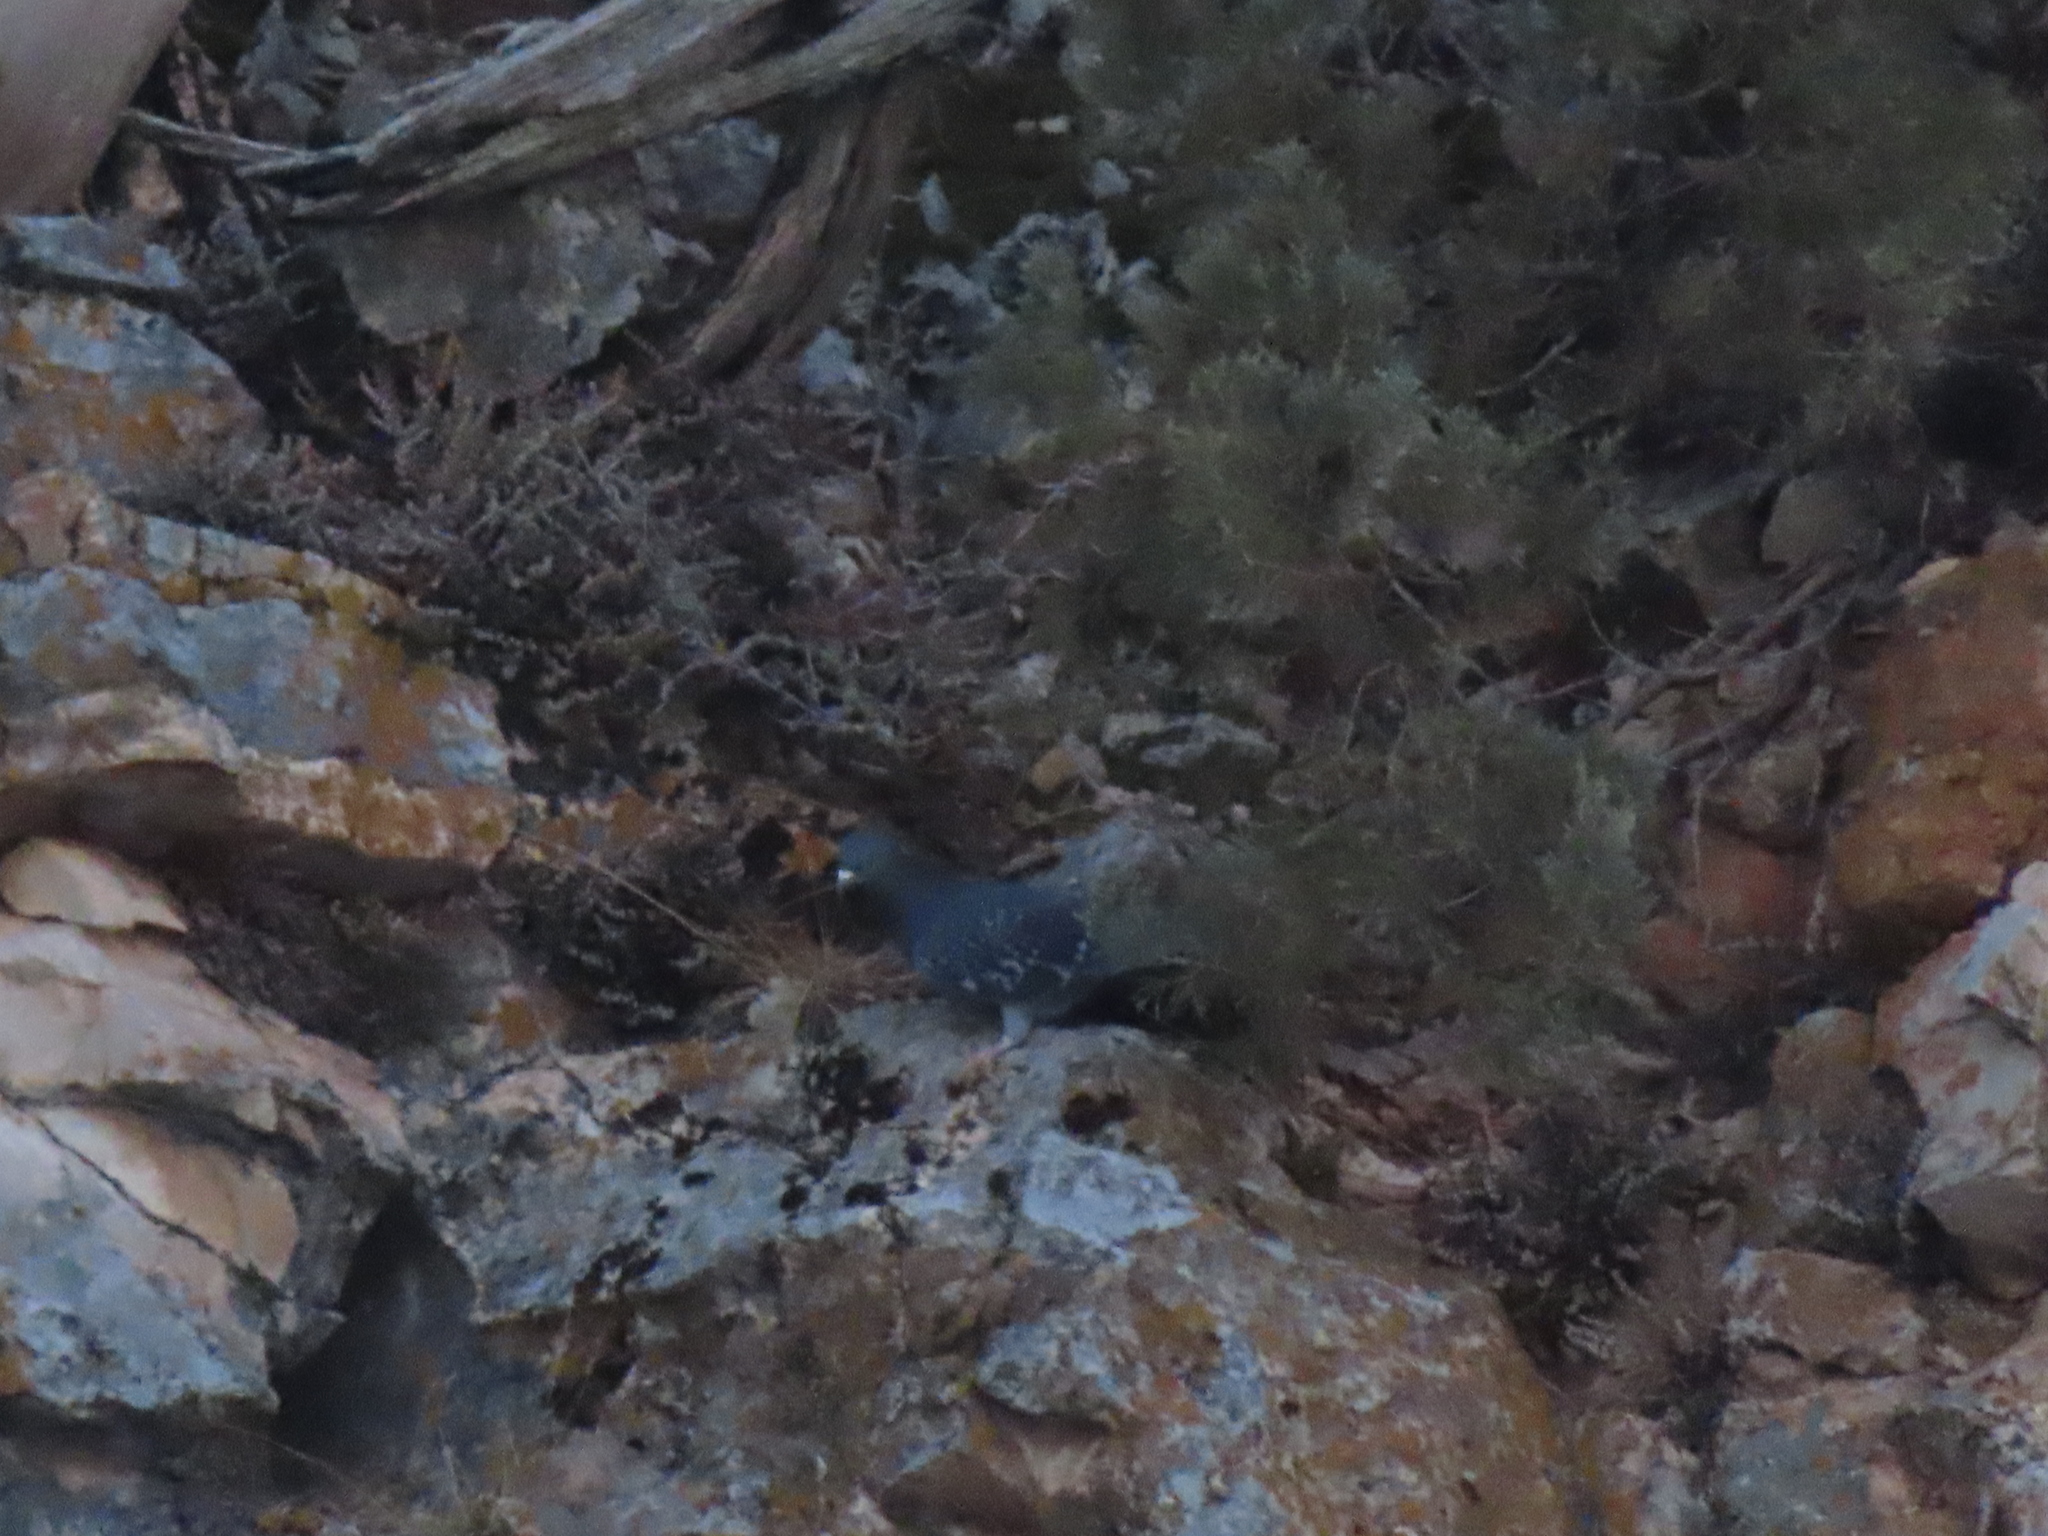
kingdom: Animalia
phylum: Chordata
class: Aves
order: Columbiformes
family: Columbidae
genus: Columba
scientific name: Columba livia
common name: Rock pigeon
